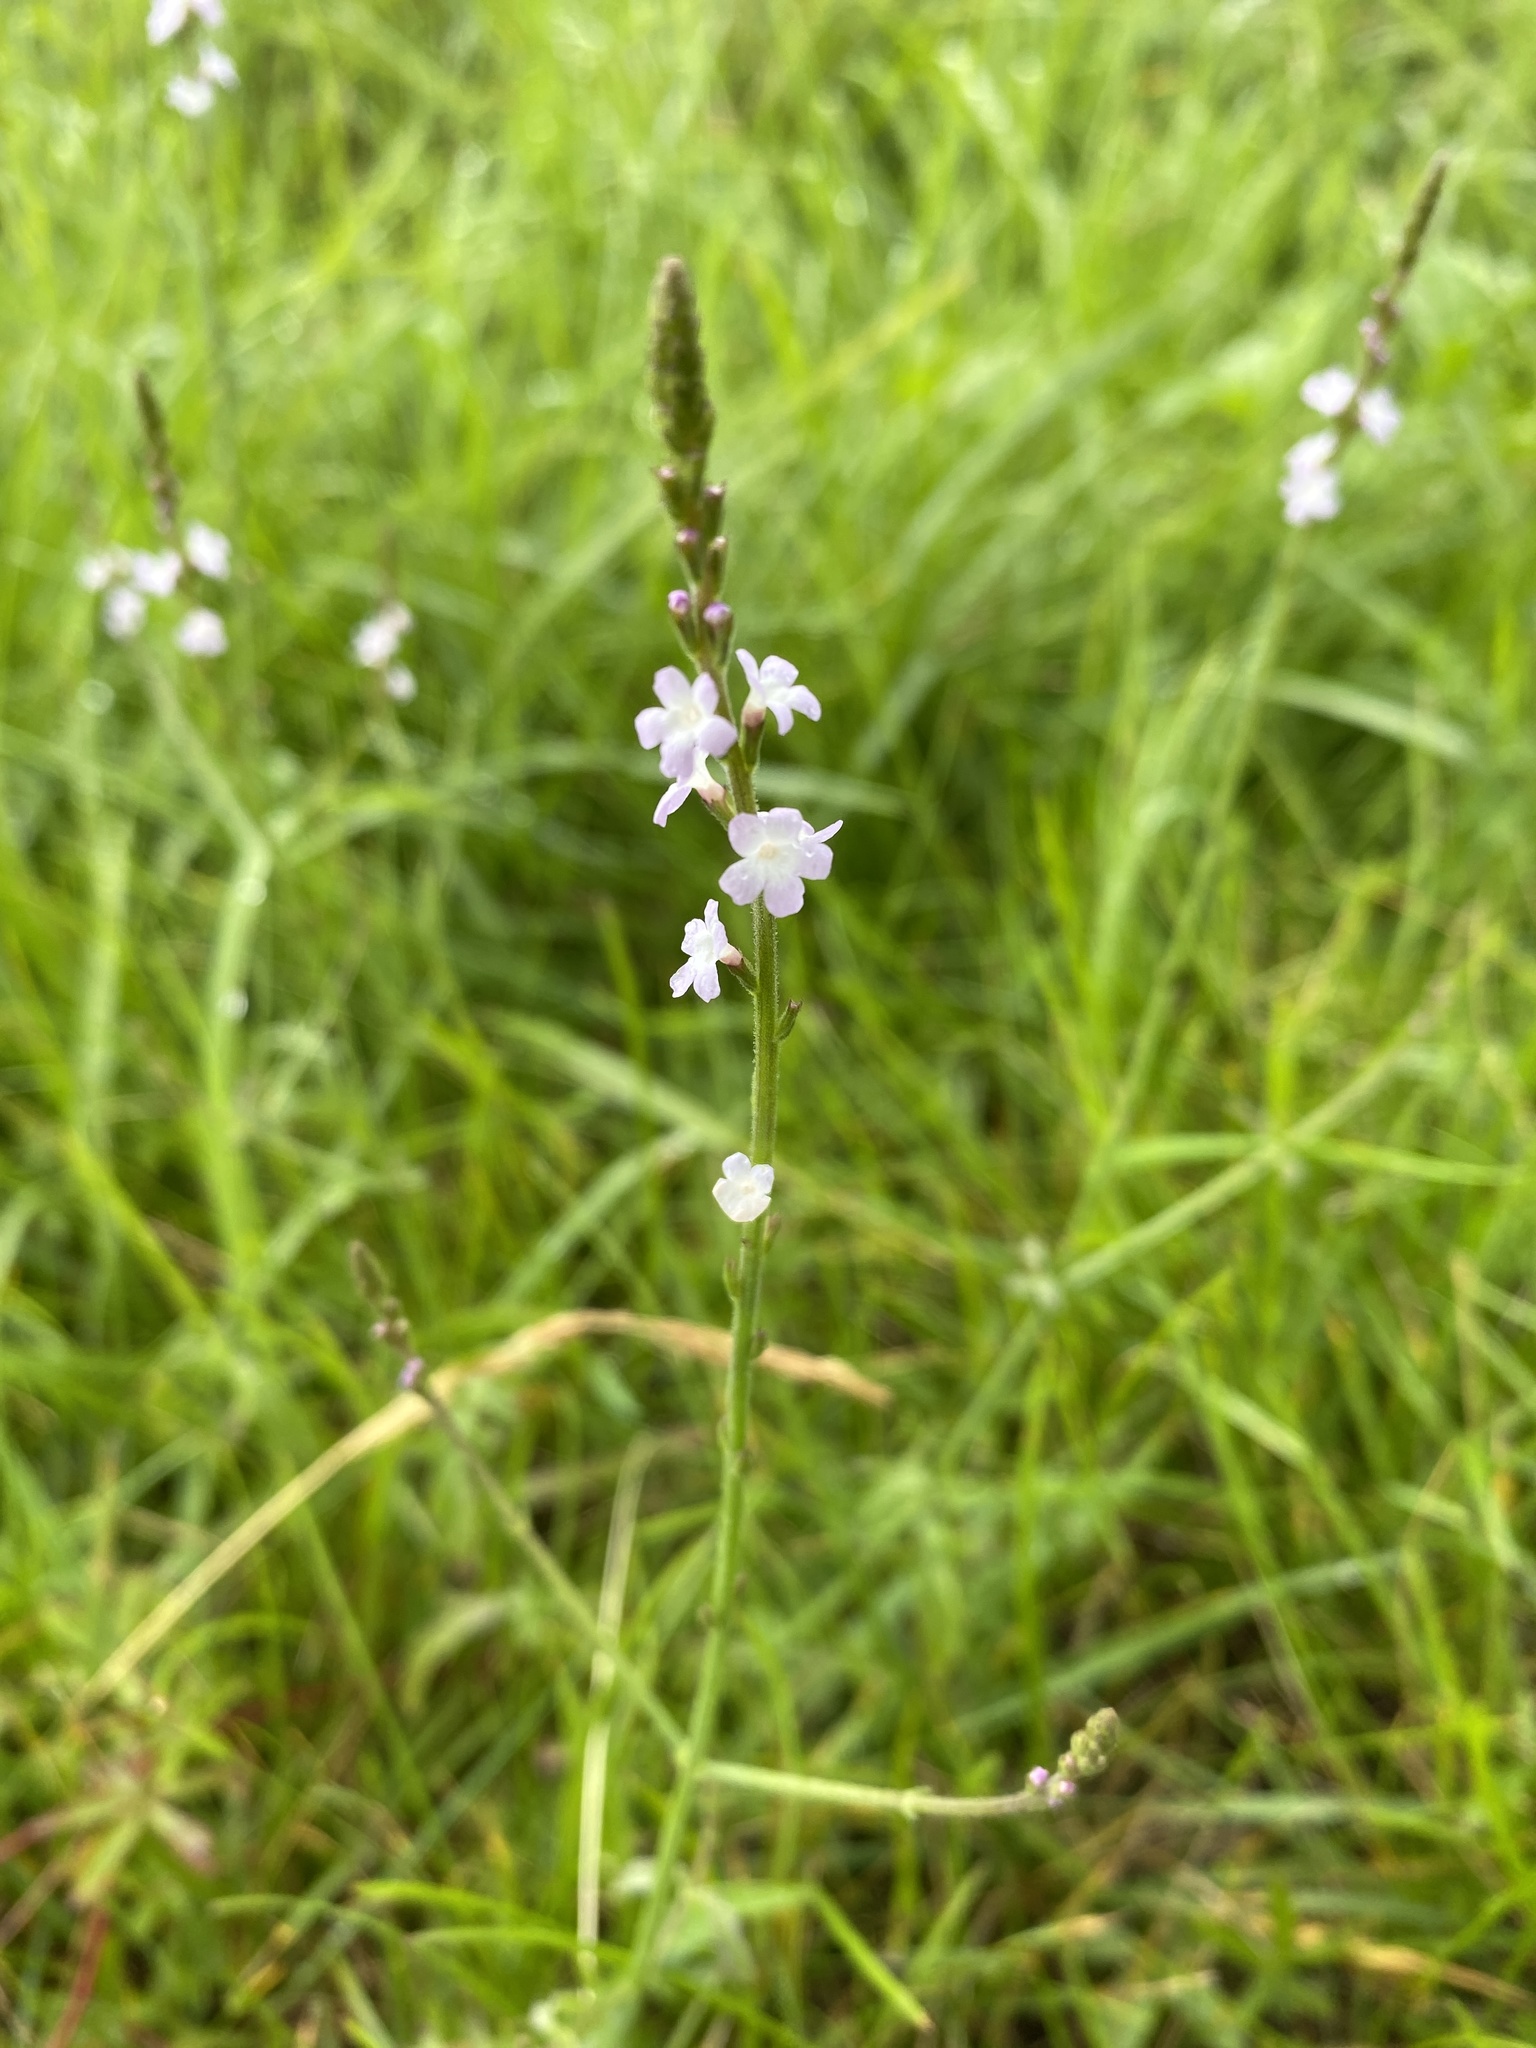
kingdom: Plantae
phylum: Tracheophyta
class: Magnoliopsida
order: Lamiales
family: Verbenaceae
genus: Verbena
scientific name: Verbena officinalis
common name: Vervain
